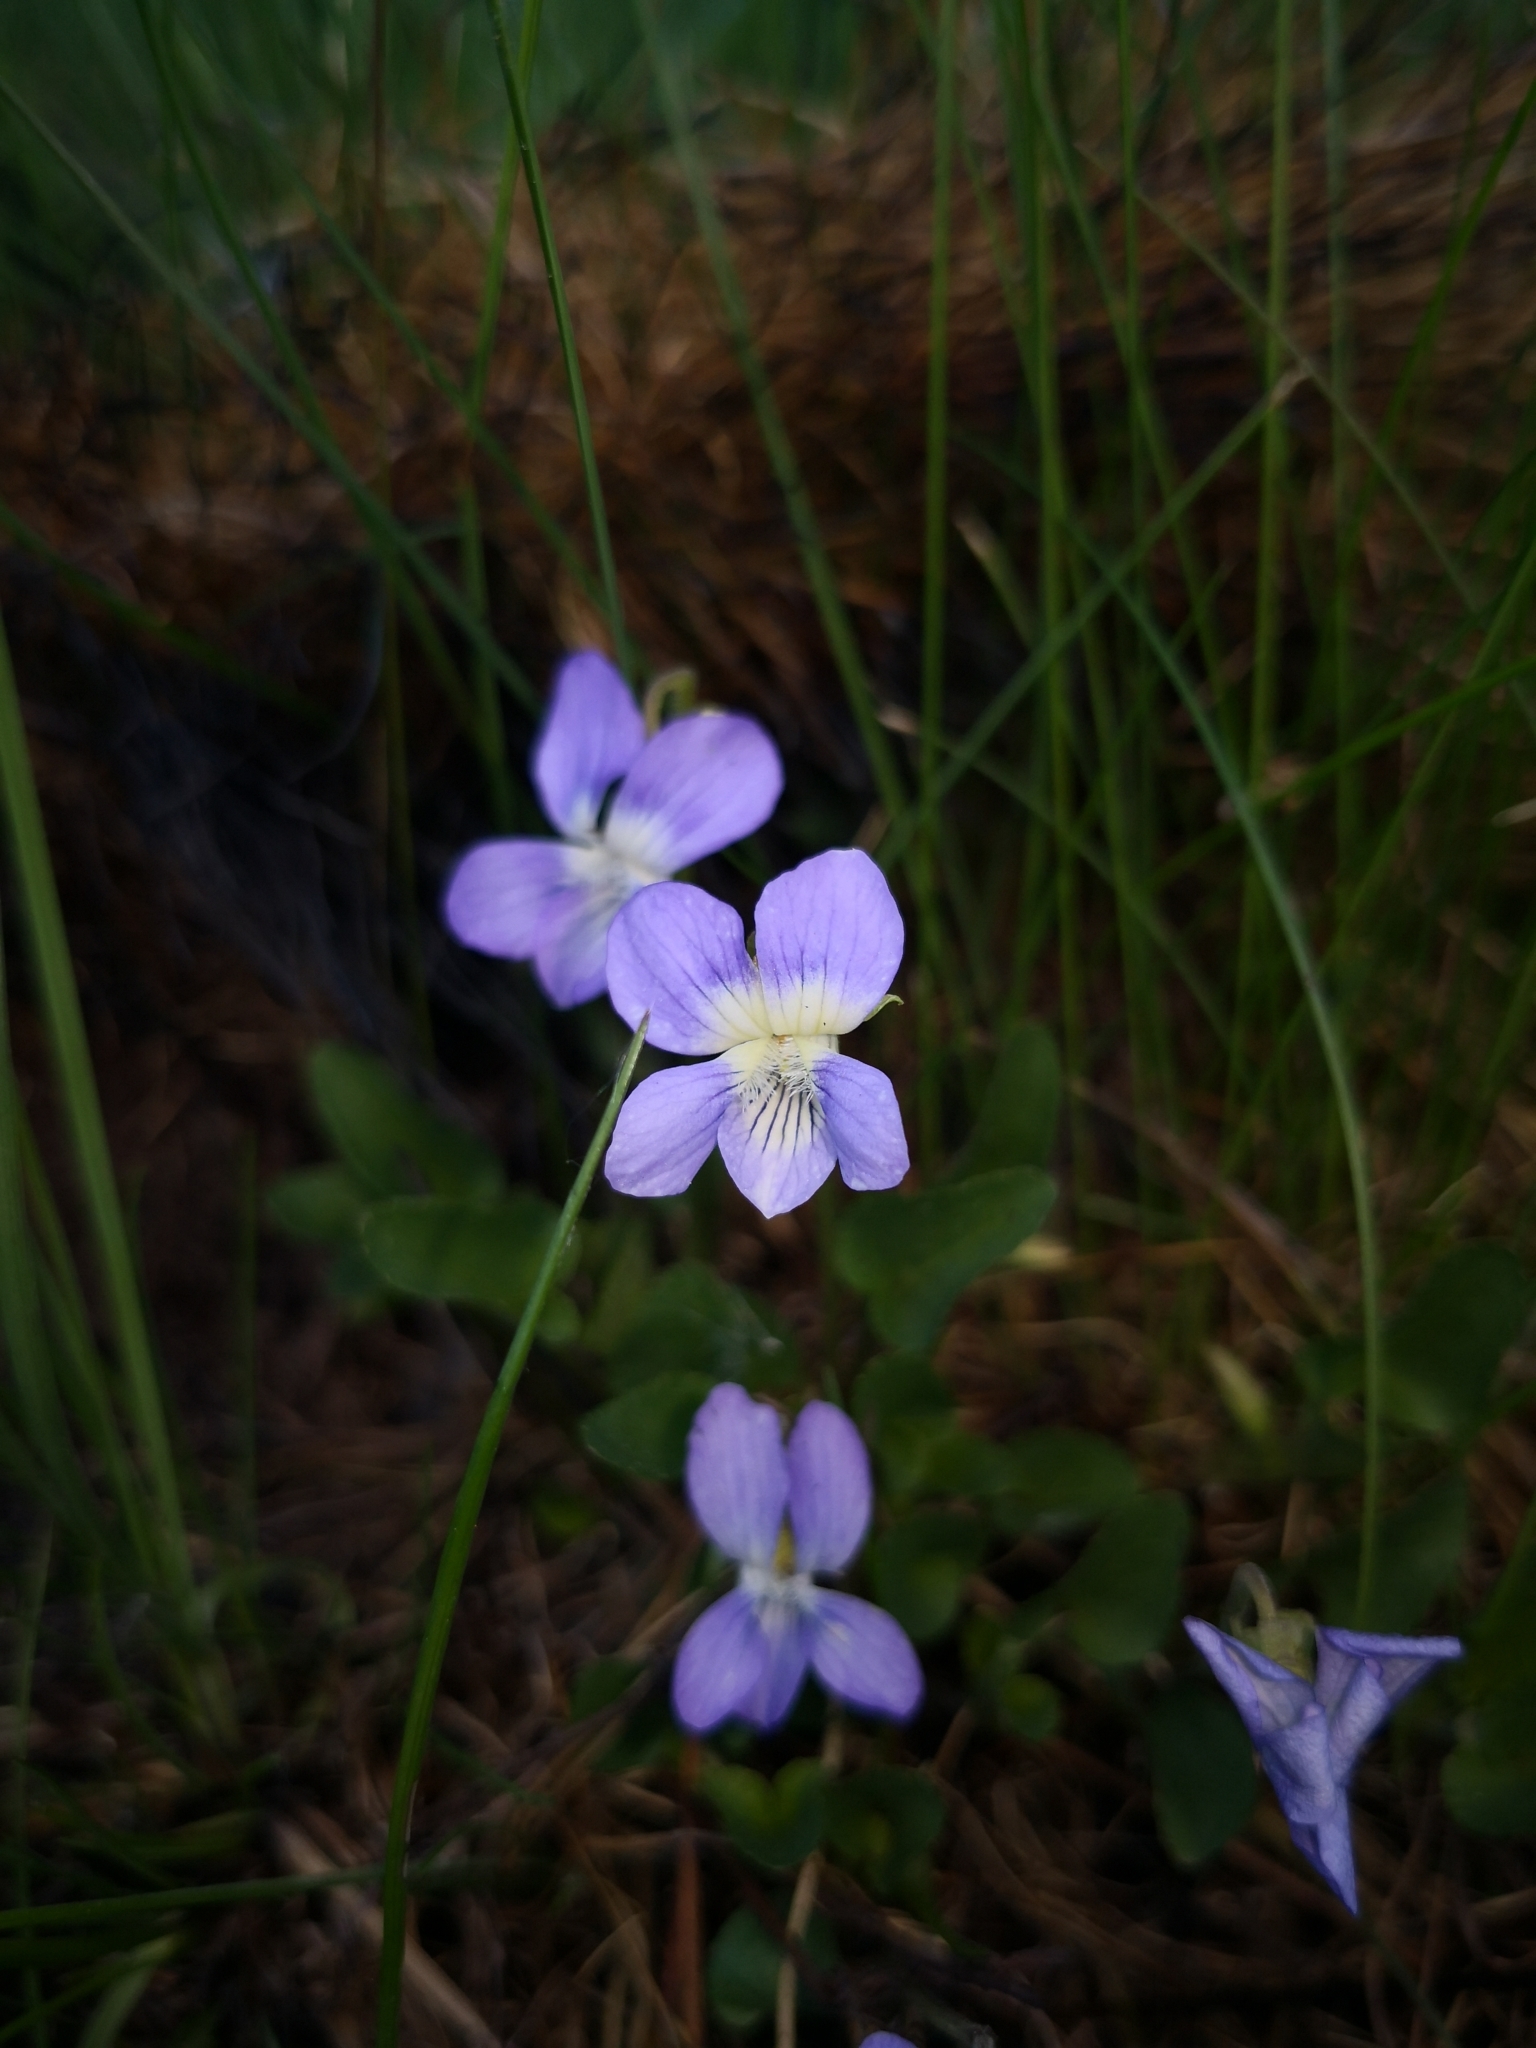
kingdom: Plantae
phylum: Tracheophyta
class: Magnoliopsida
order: Malpighiales
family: Violaceae
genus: Viola
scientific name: Viola canina
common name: Heath dog-violet
